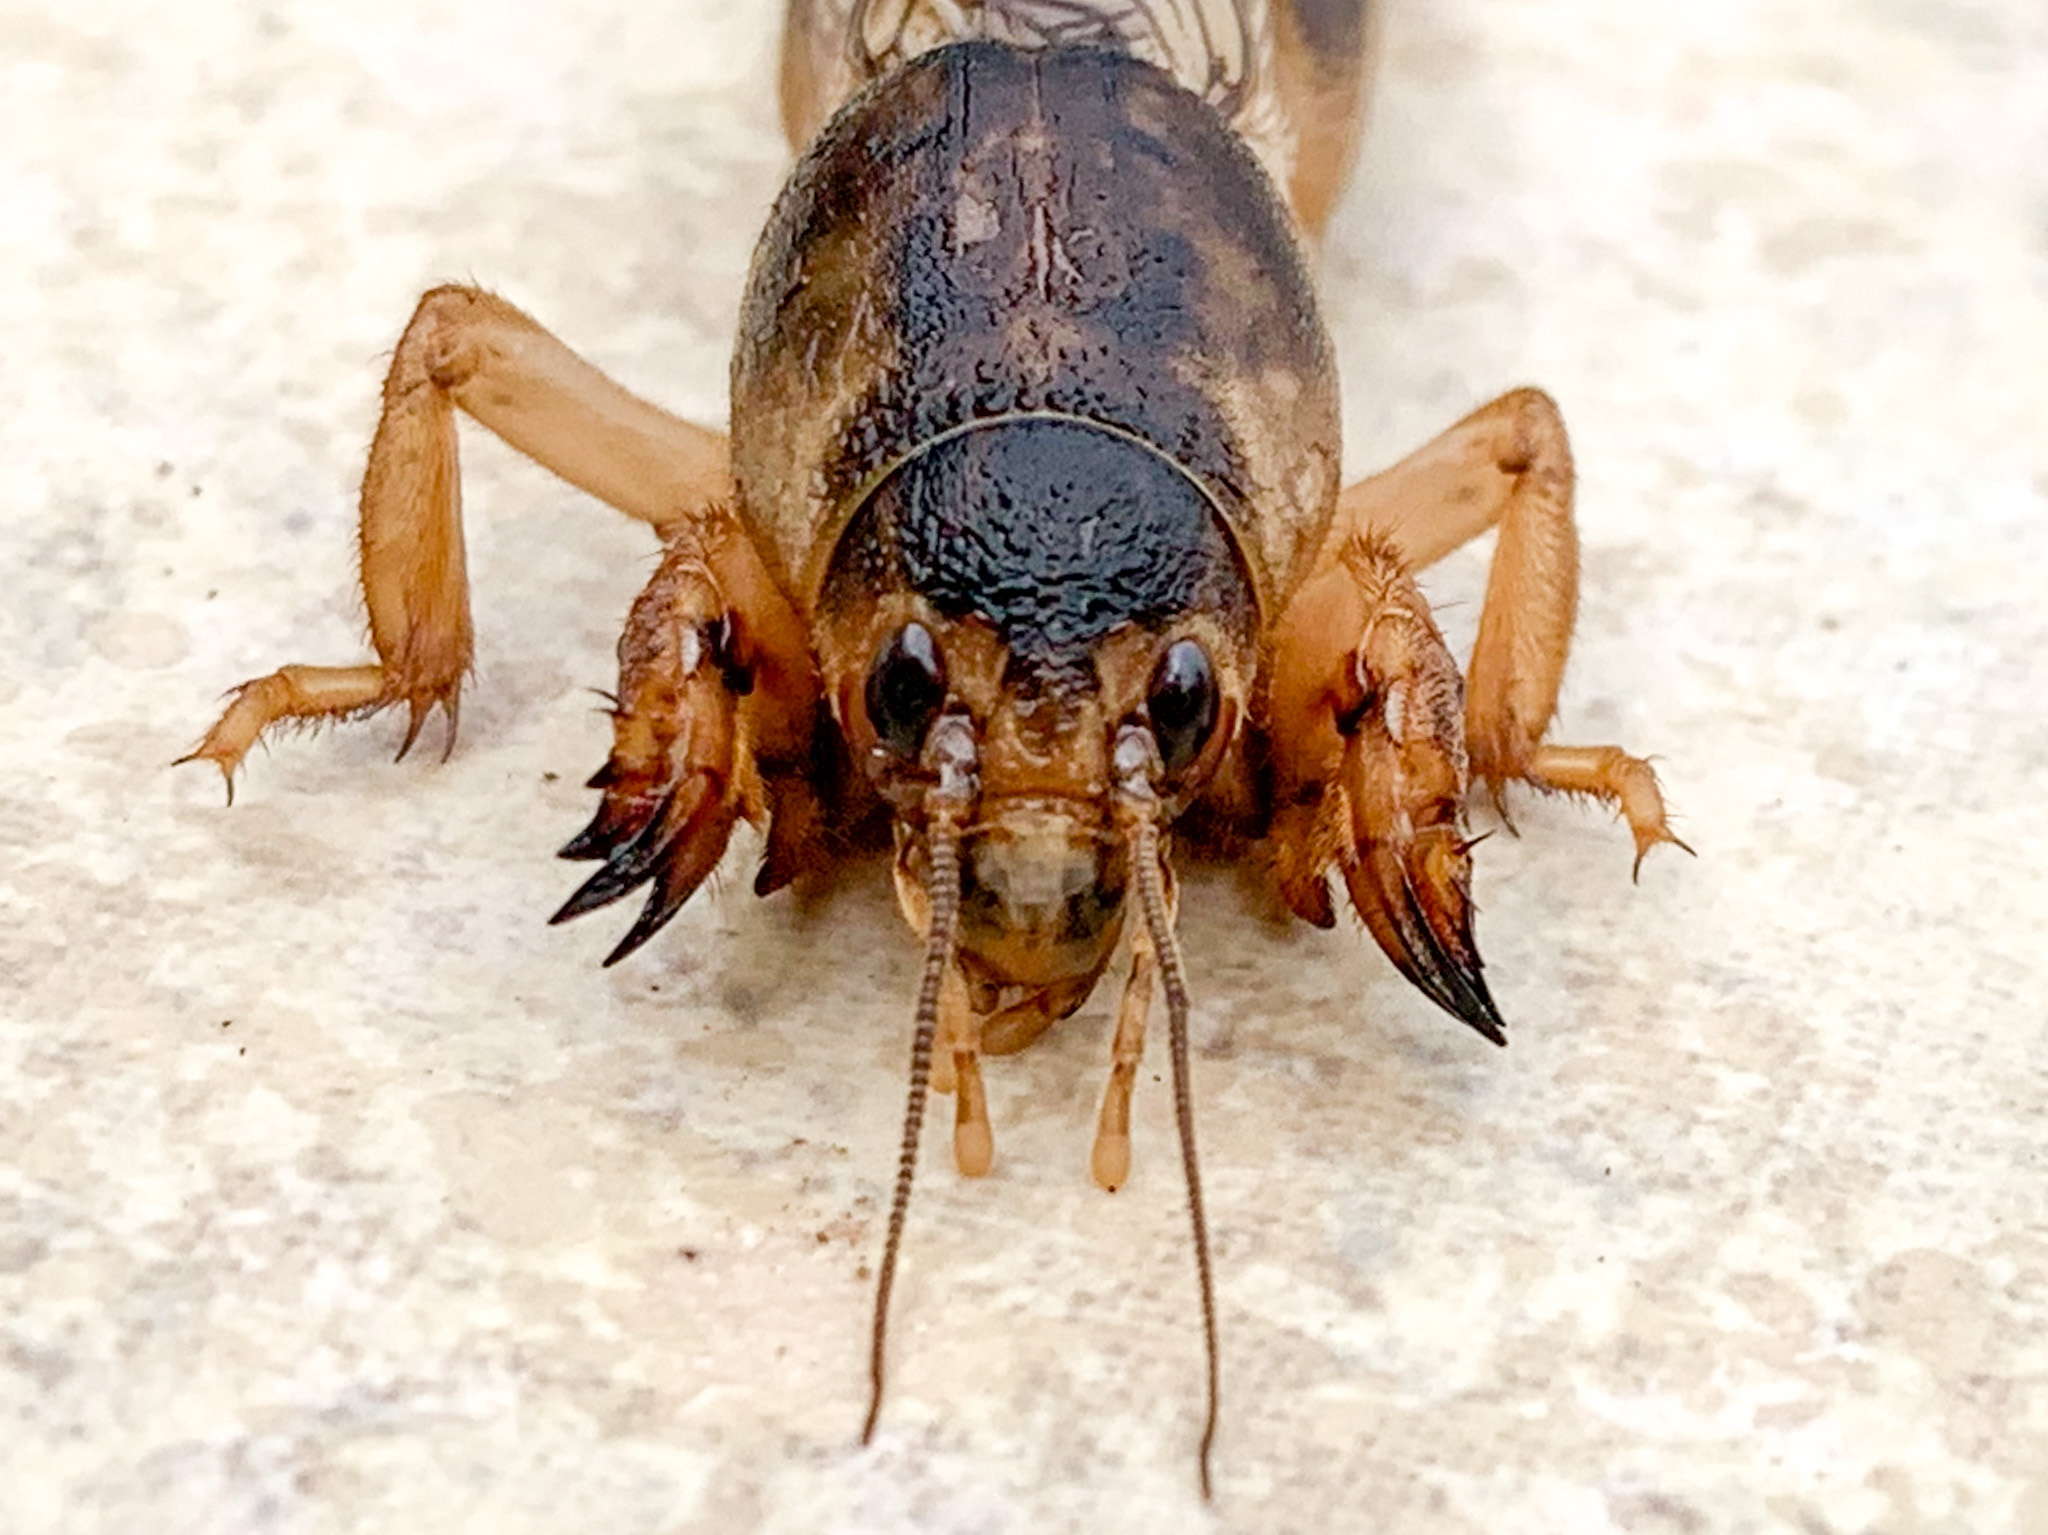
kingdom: Animalia
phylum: Arthropoda
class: Insecta
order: Orthoptera
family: Gryllotalpidae
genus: Neoscapteriscus
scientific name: Neoscapteriscus vicinus
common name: Tawny mole cricket
